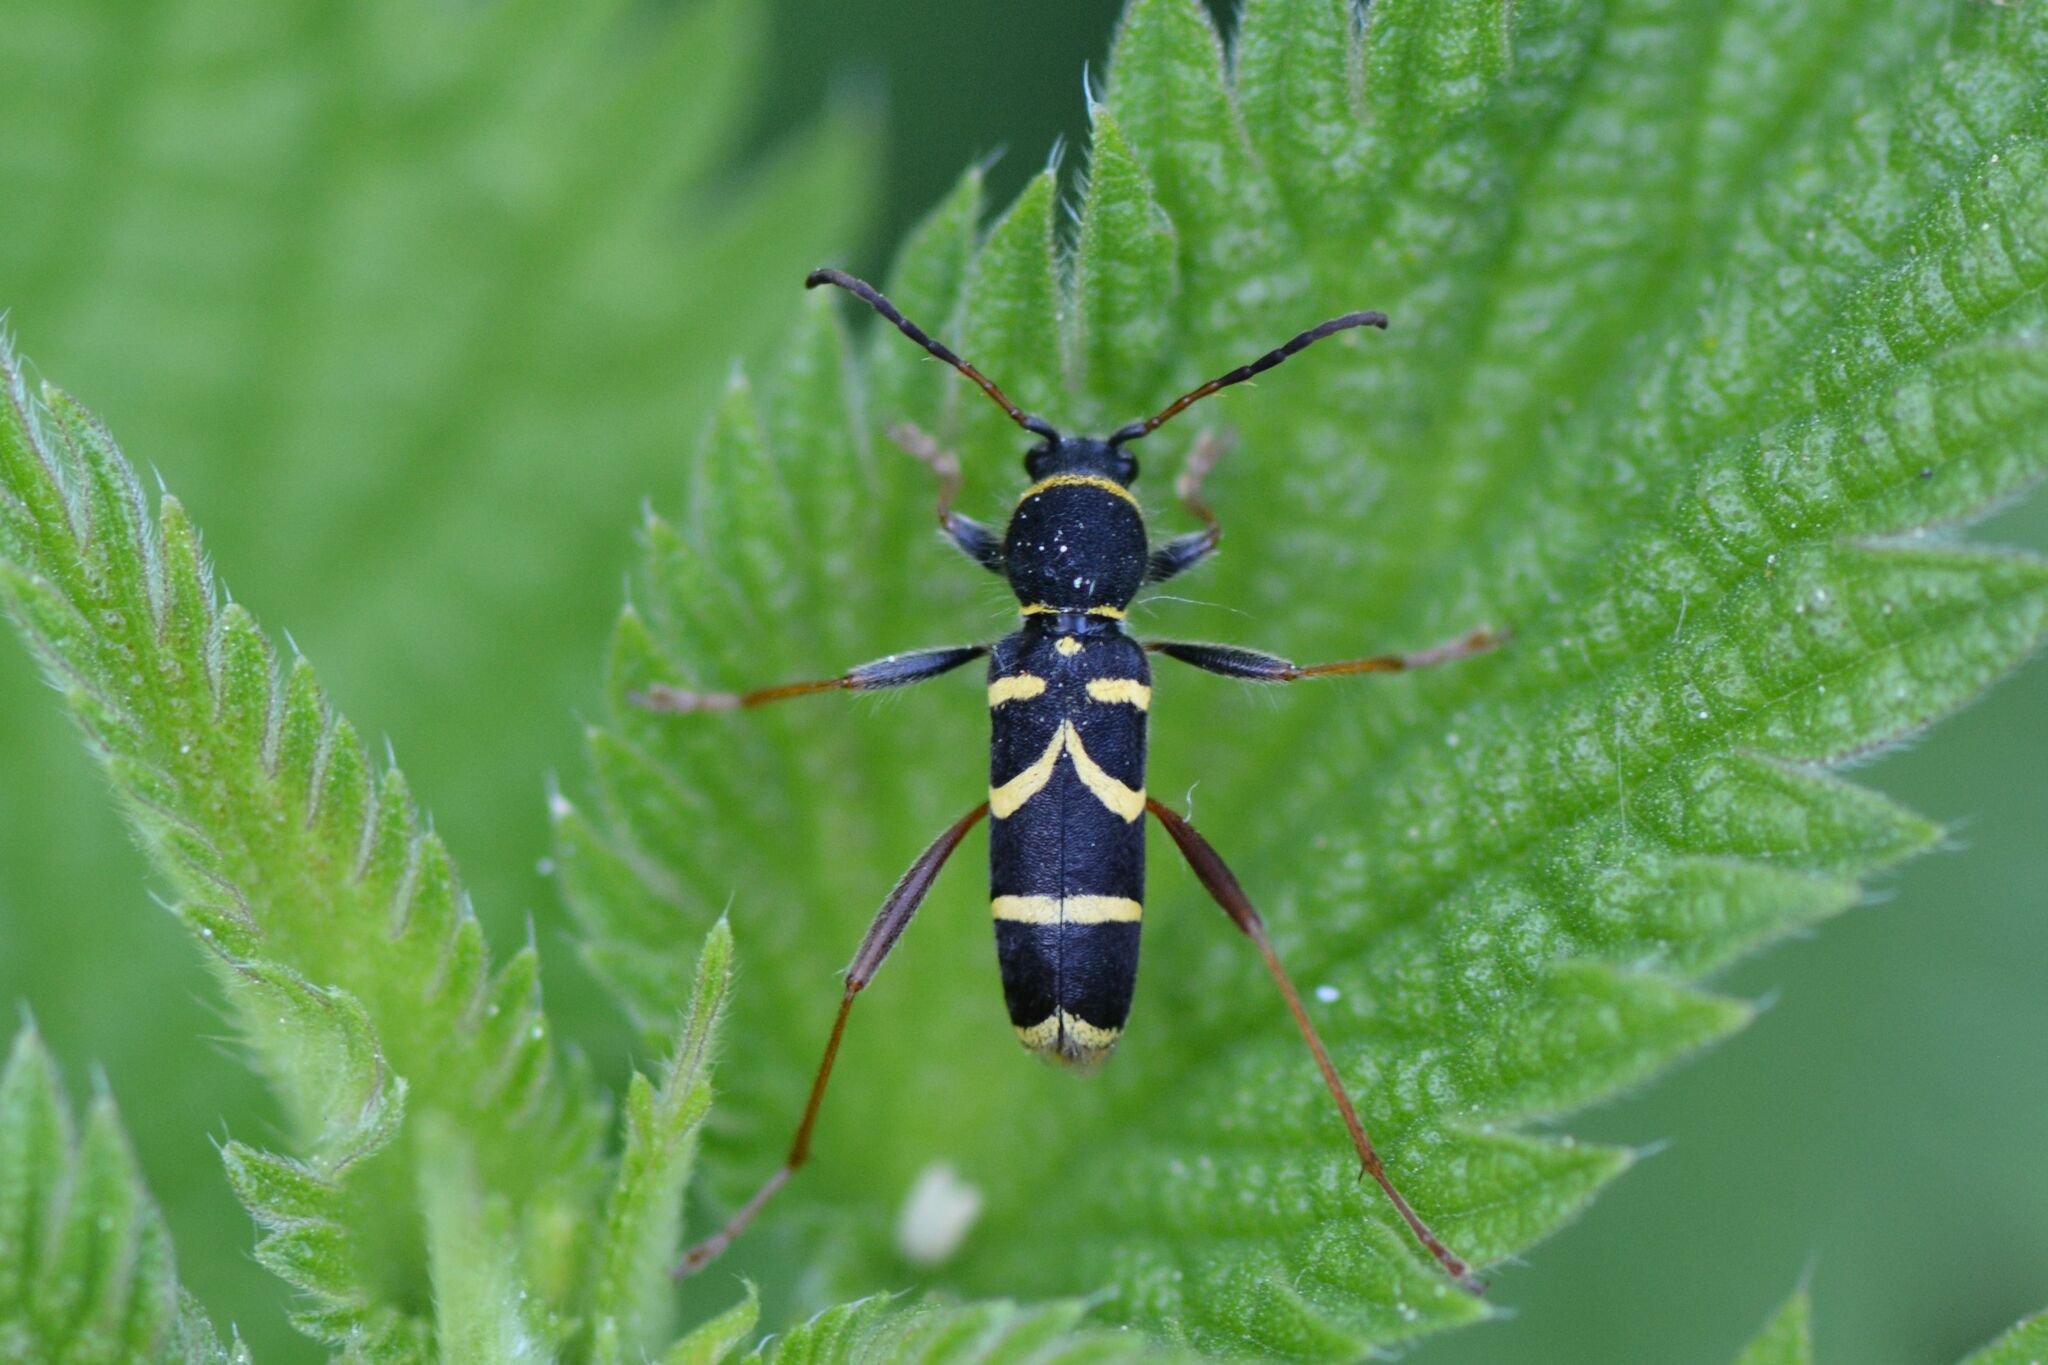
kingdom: Animalia
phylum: Arthropoda
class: Insecta
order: Coleoptera
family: Cerambycidae
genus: Clytus
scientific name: Clytus arietis
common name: Wasp beetle
